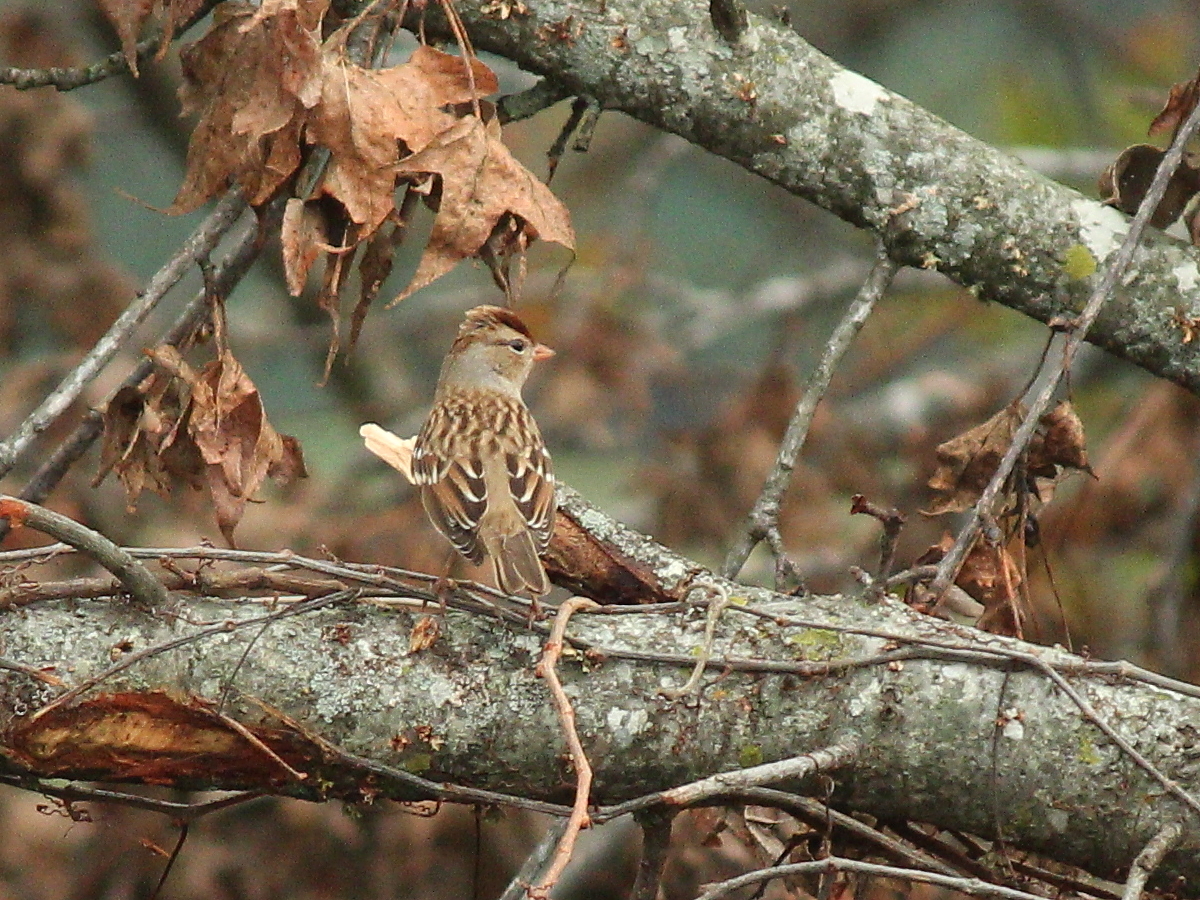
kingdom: Animalia
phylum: Chordata
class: Aves
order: Passeriformes
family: Passerellidae
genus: Zonotrichia
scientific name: Zonotrichia leucophrys
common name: White-crowned sparrow
